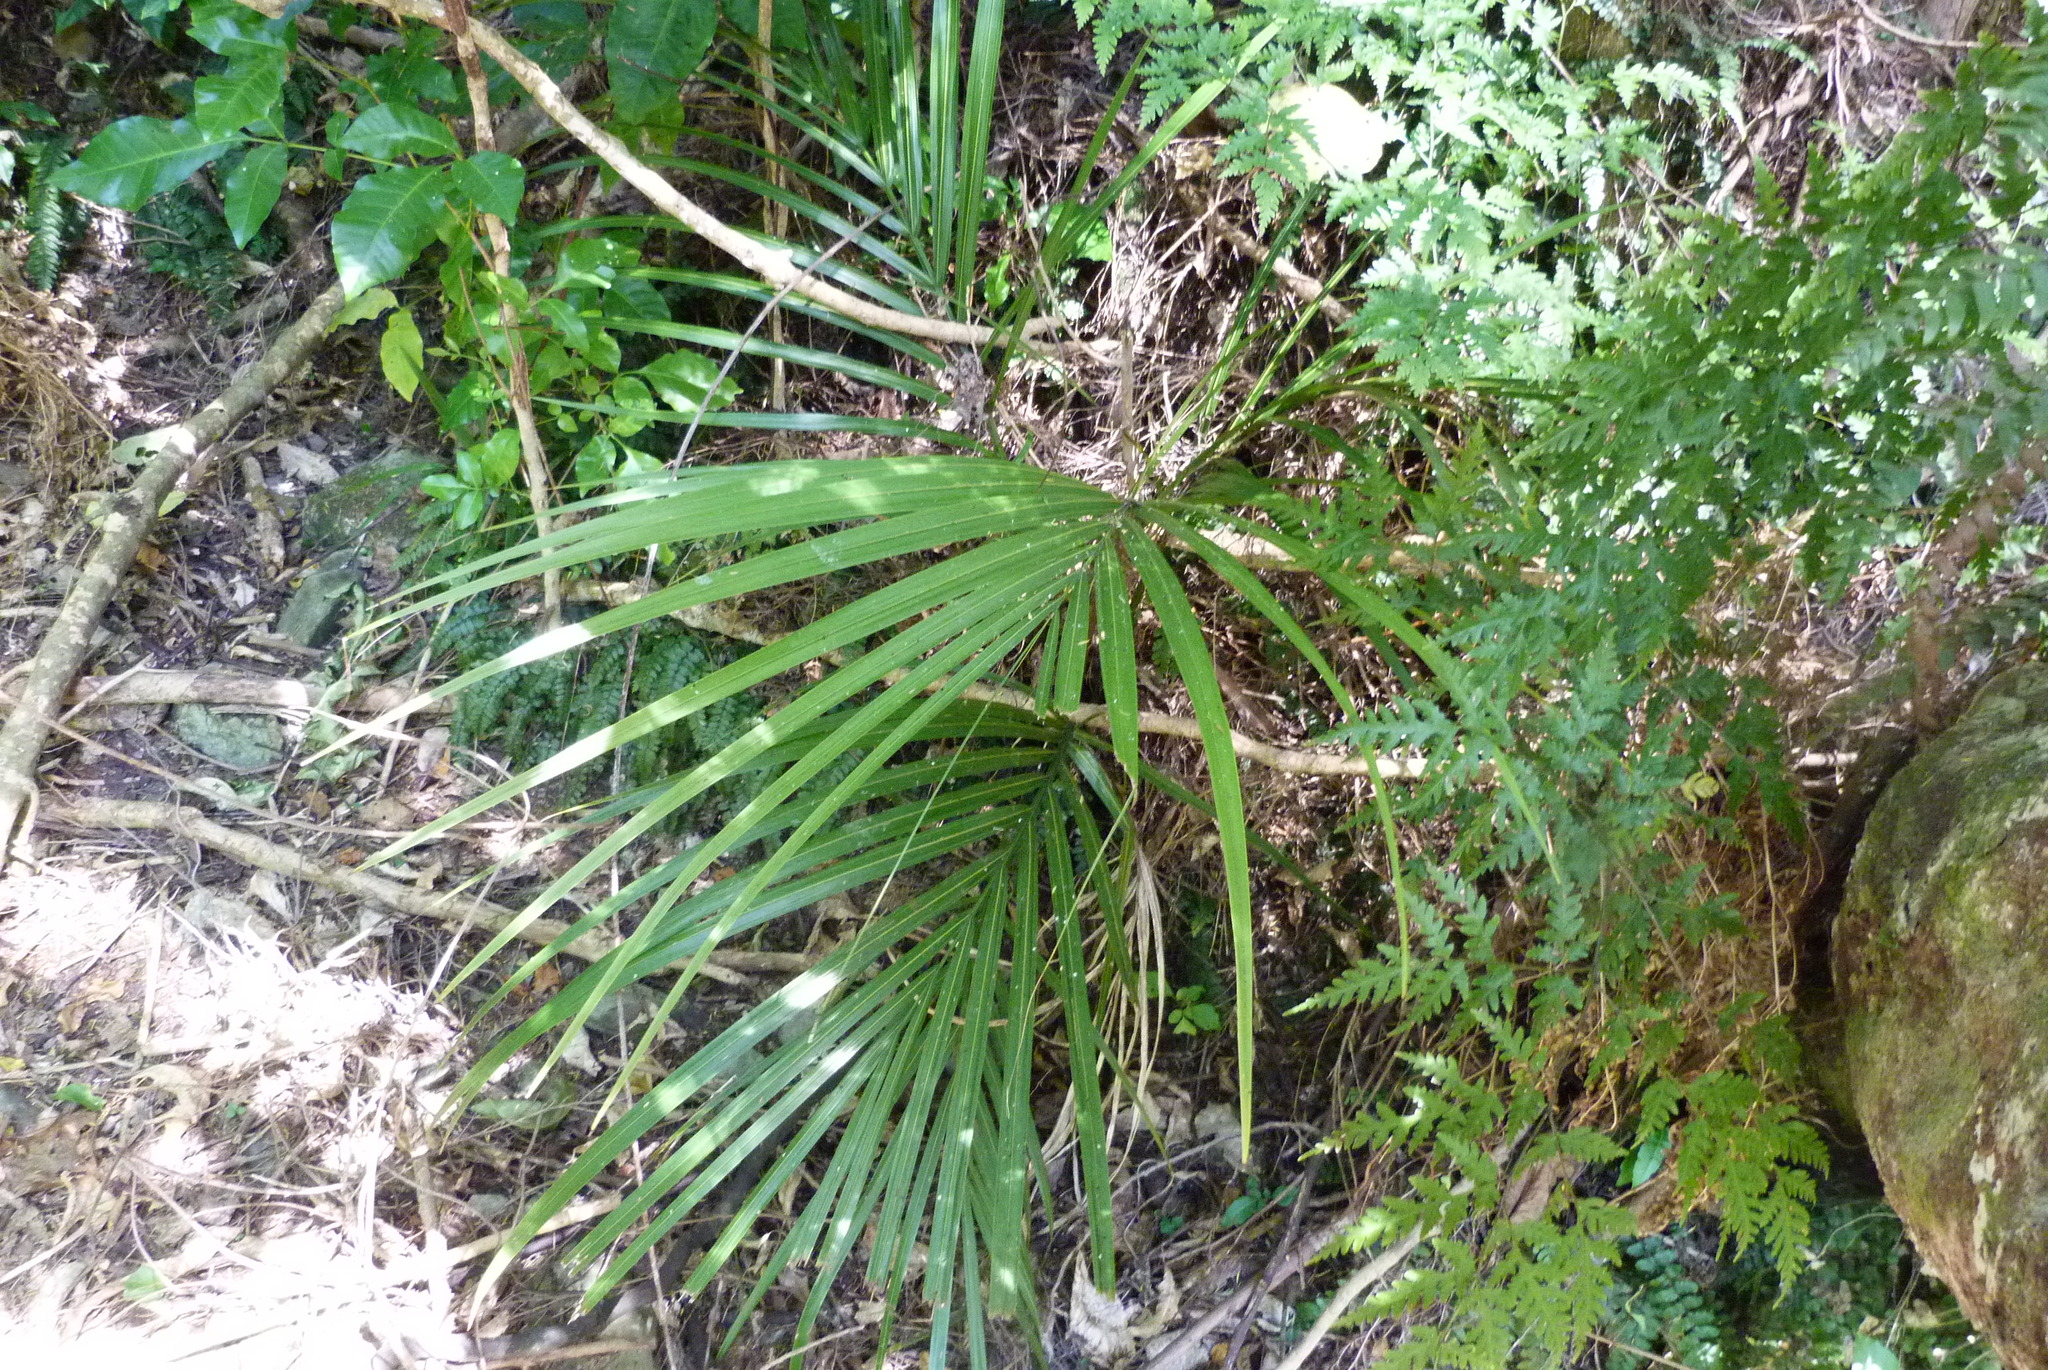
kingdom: Plantae
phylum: Tracheophyta
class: Liliopsida
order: Arecales
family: Arecaceae
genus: Rhopalostylis
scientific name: Rhopalostylis sapida
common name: Feather-duster palm
